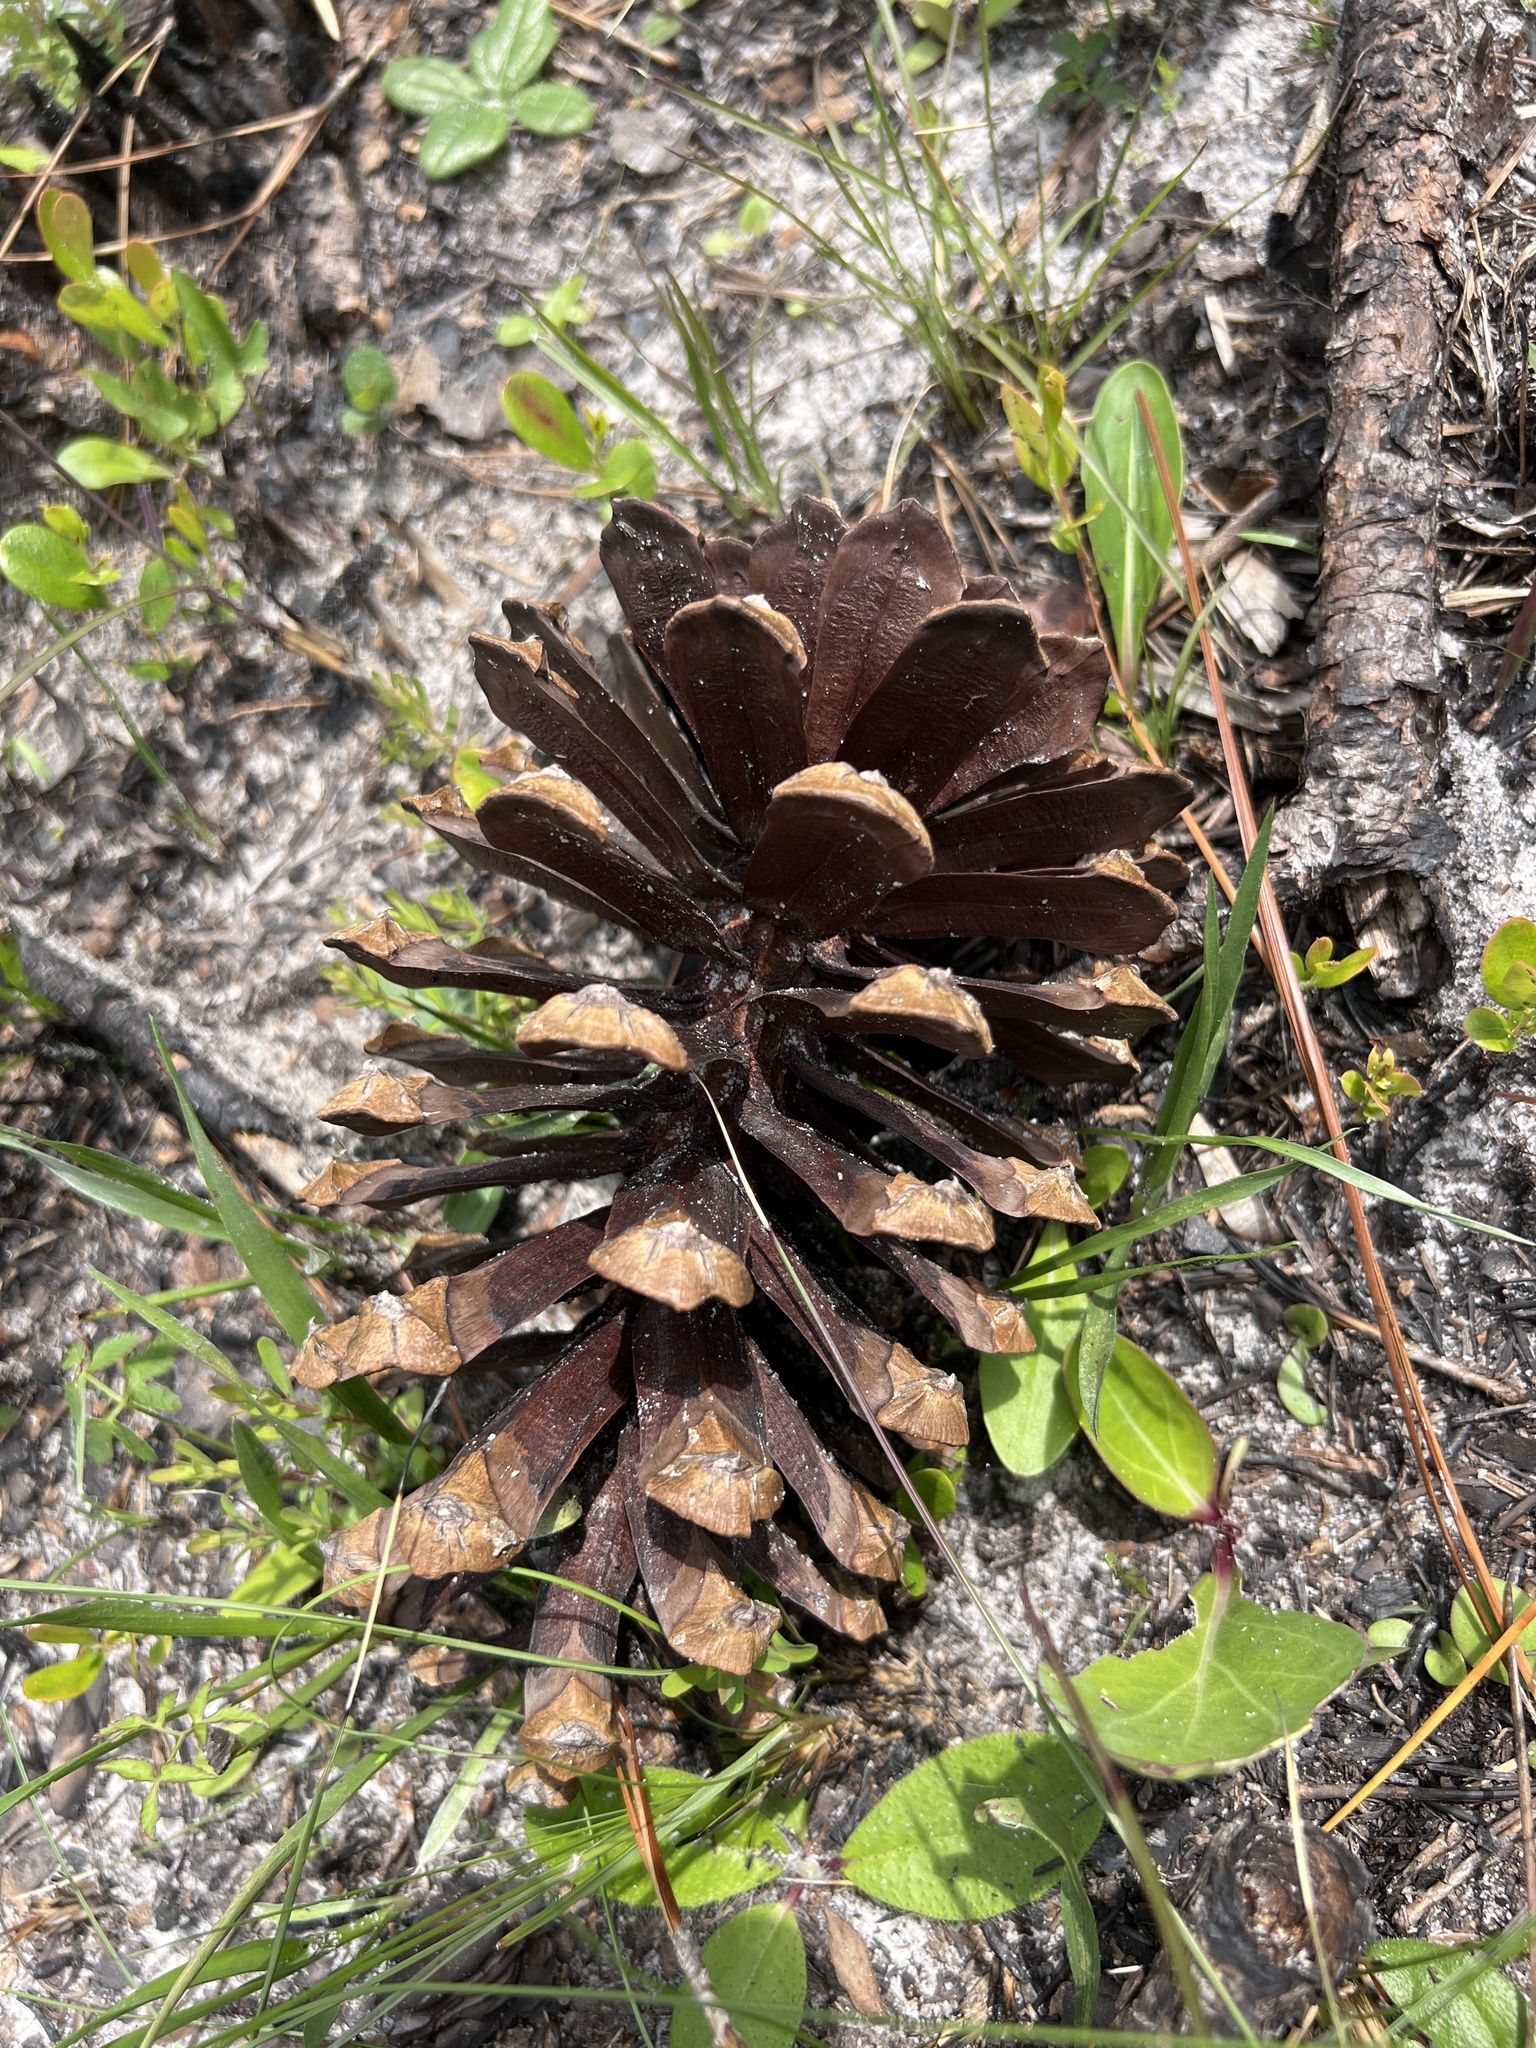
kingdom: Plantae
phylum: Tracheophyta
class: Pinopsida
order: Pinales
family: Pinaceae
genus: Pinus
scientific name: Pinus palustris
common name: Longleaf pine
